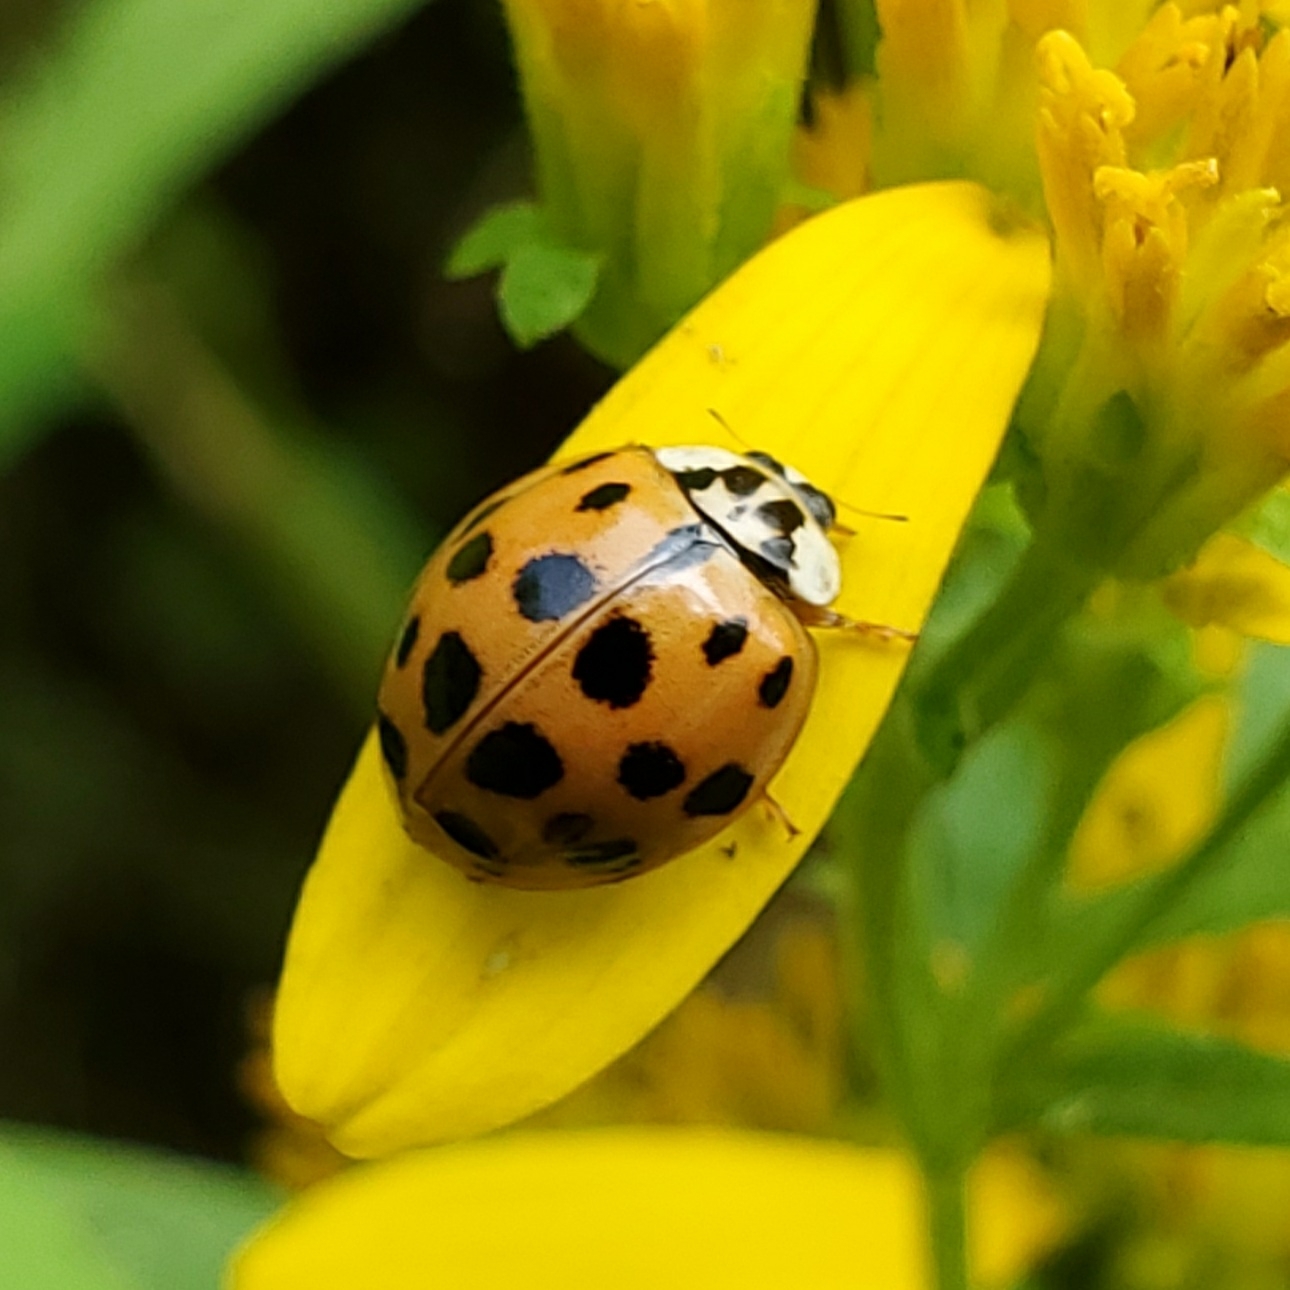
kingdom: Animalia
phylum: Arthropoda
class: Insecta
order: Coleoptera
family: Coccinellidae
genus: Harmonia
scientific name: Harmonia axyridis
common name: Harlequin ladybird
